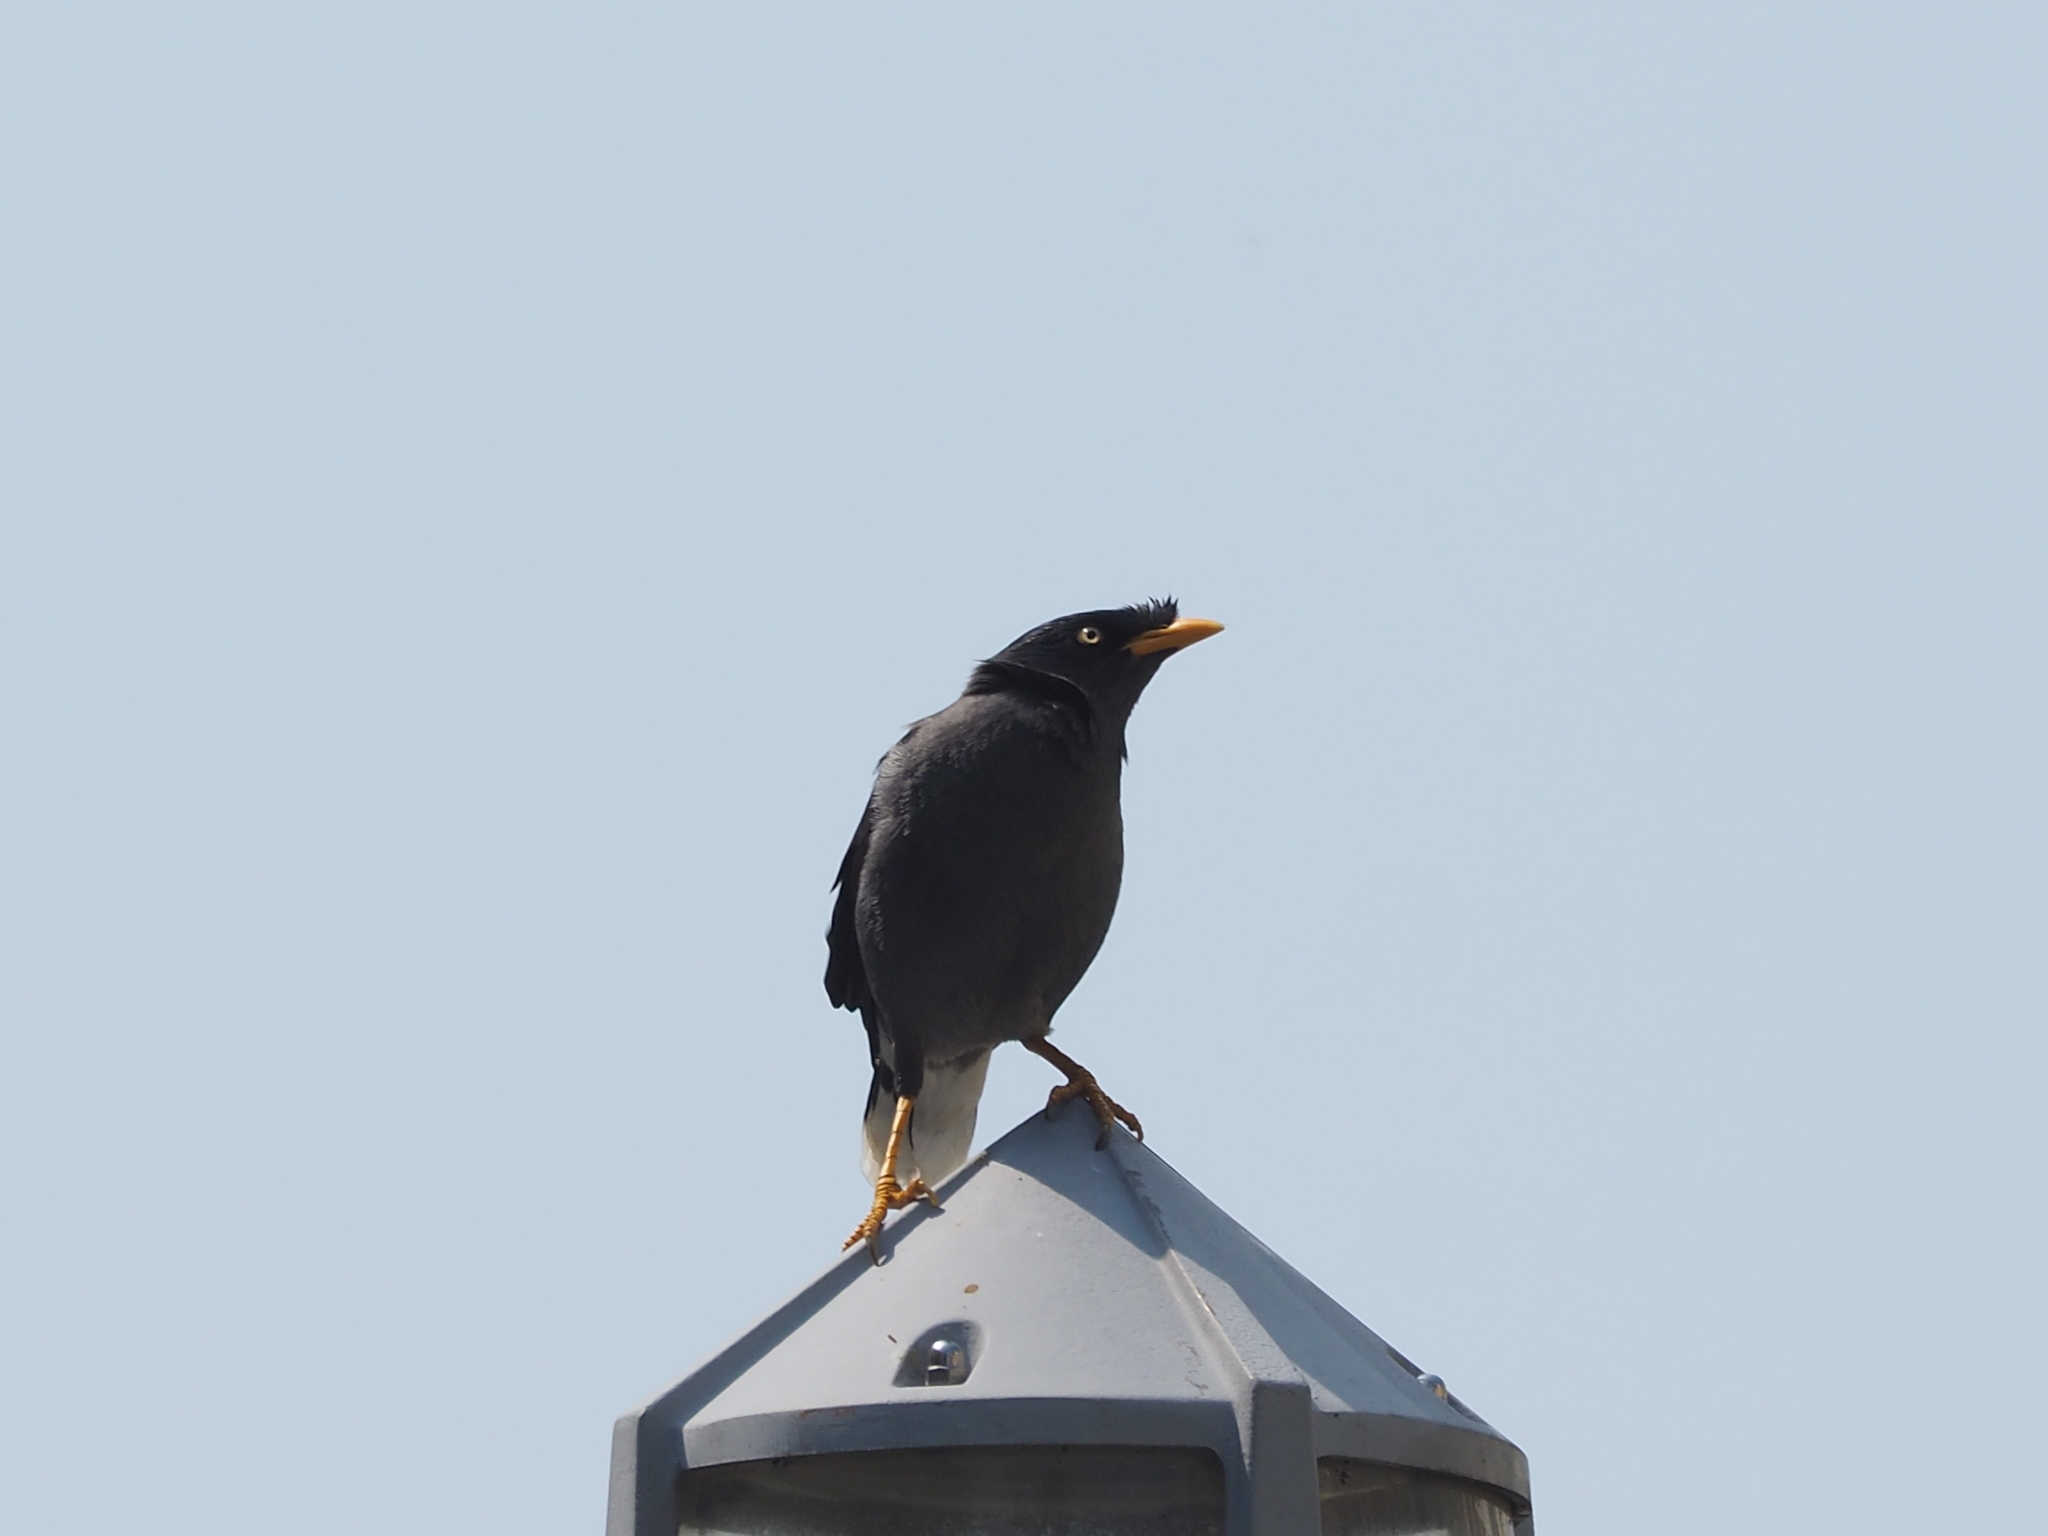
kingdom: Animalia
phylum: Chordata
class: Aves
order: Passeriformes
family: Sturnidae
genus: Acridotheres
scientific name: Acridotheres javanicus
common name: Javan myna
